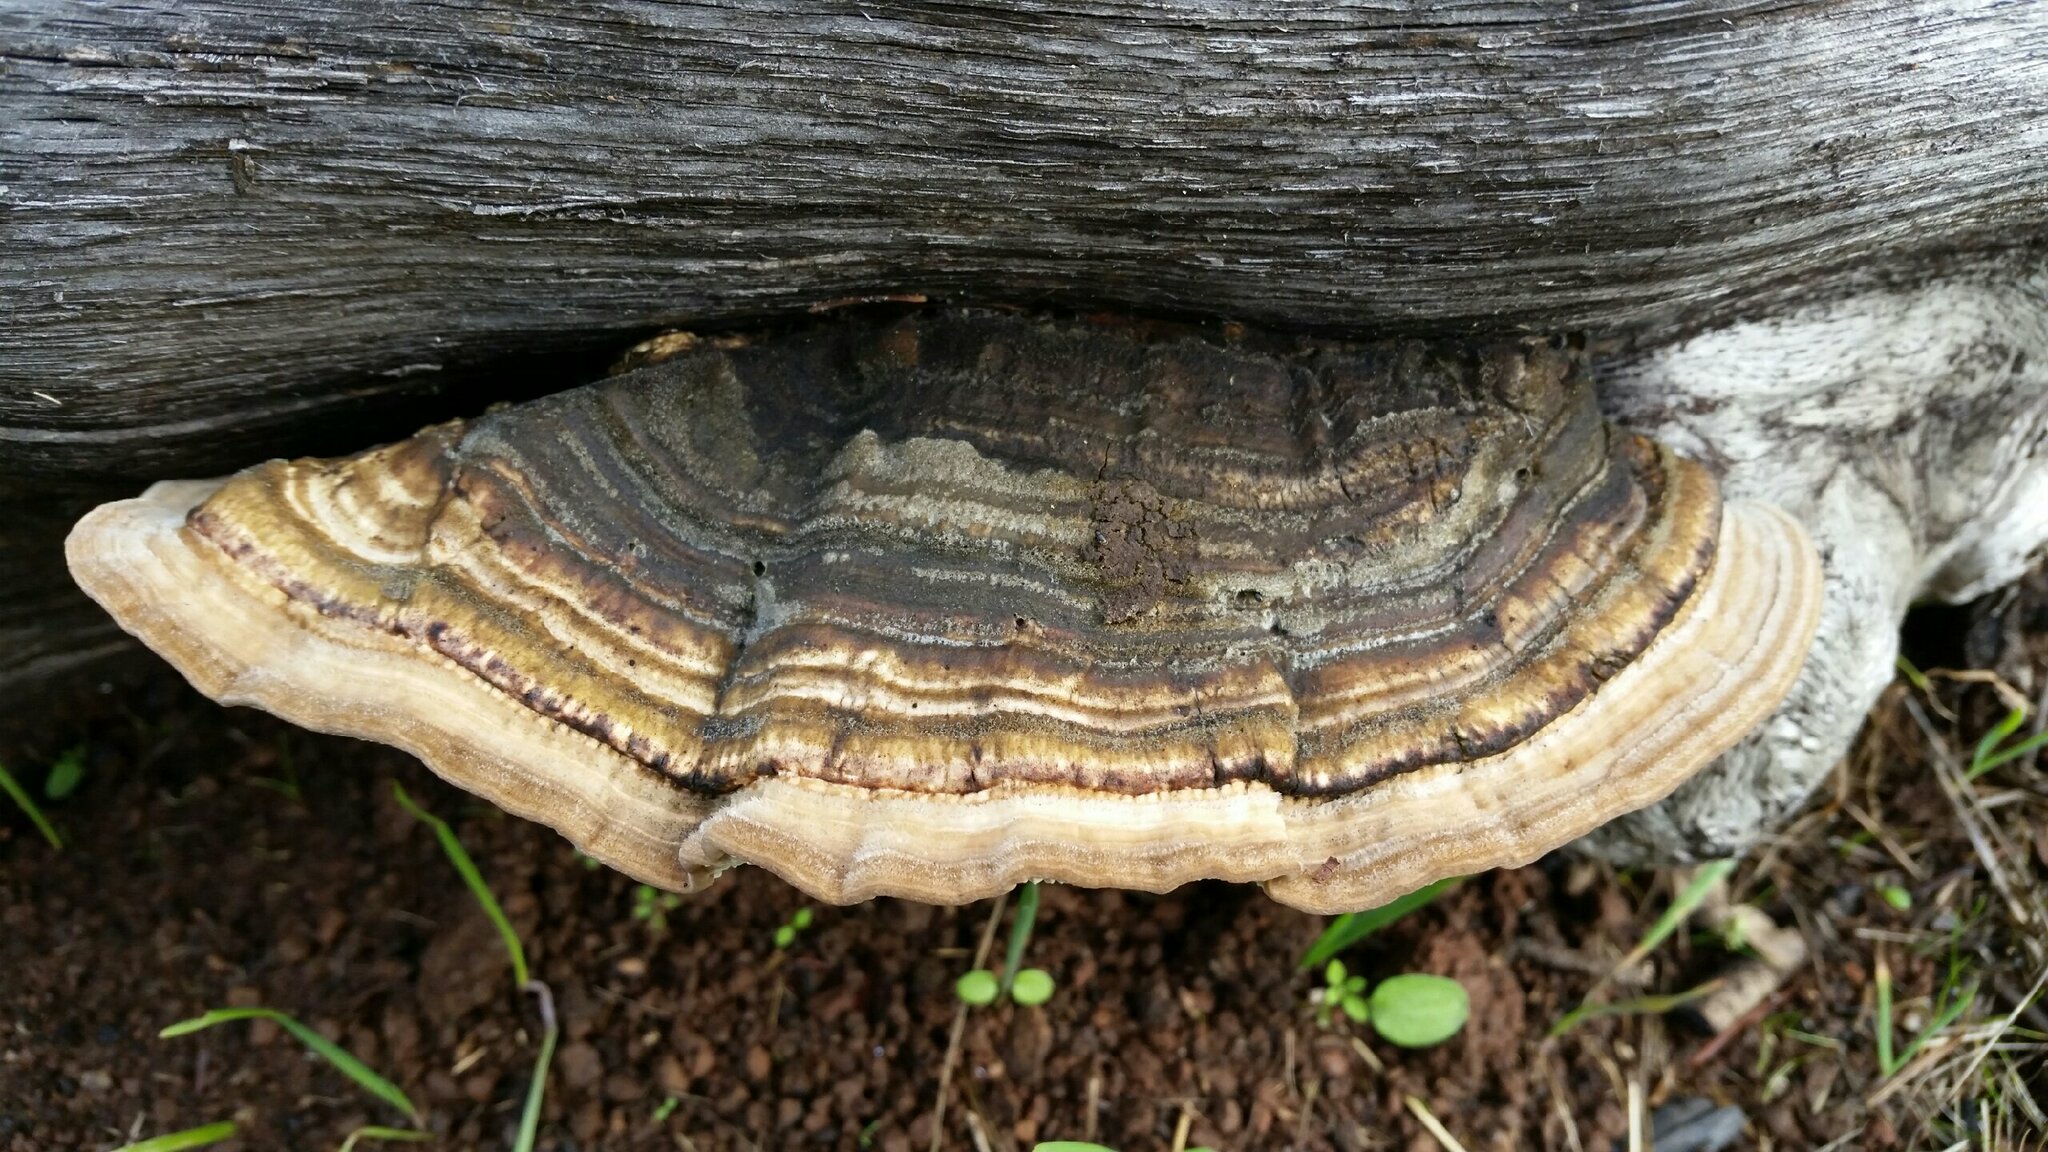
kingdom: Fungi
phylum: Basidiomycota
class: Agaricomycetes
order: Polyporales
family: Polyporaceae
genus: Lenzites
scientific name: Lenzites betulinus
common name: Birch mazegill
